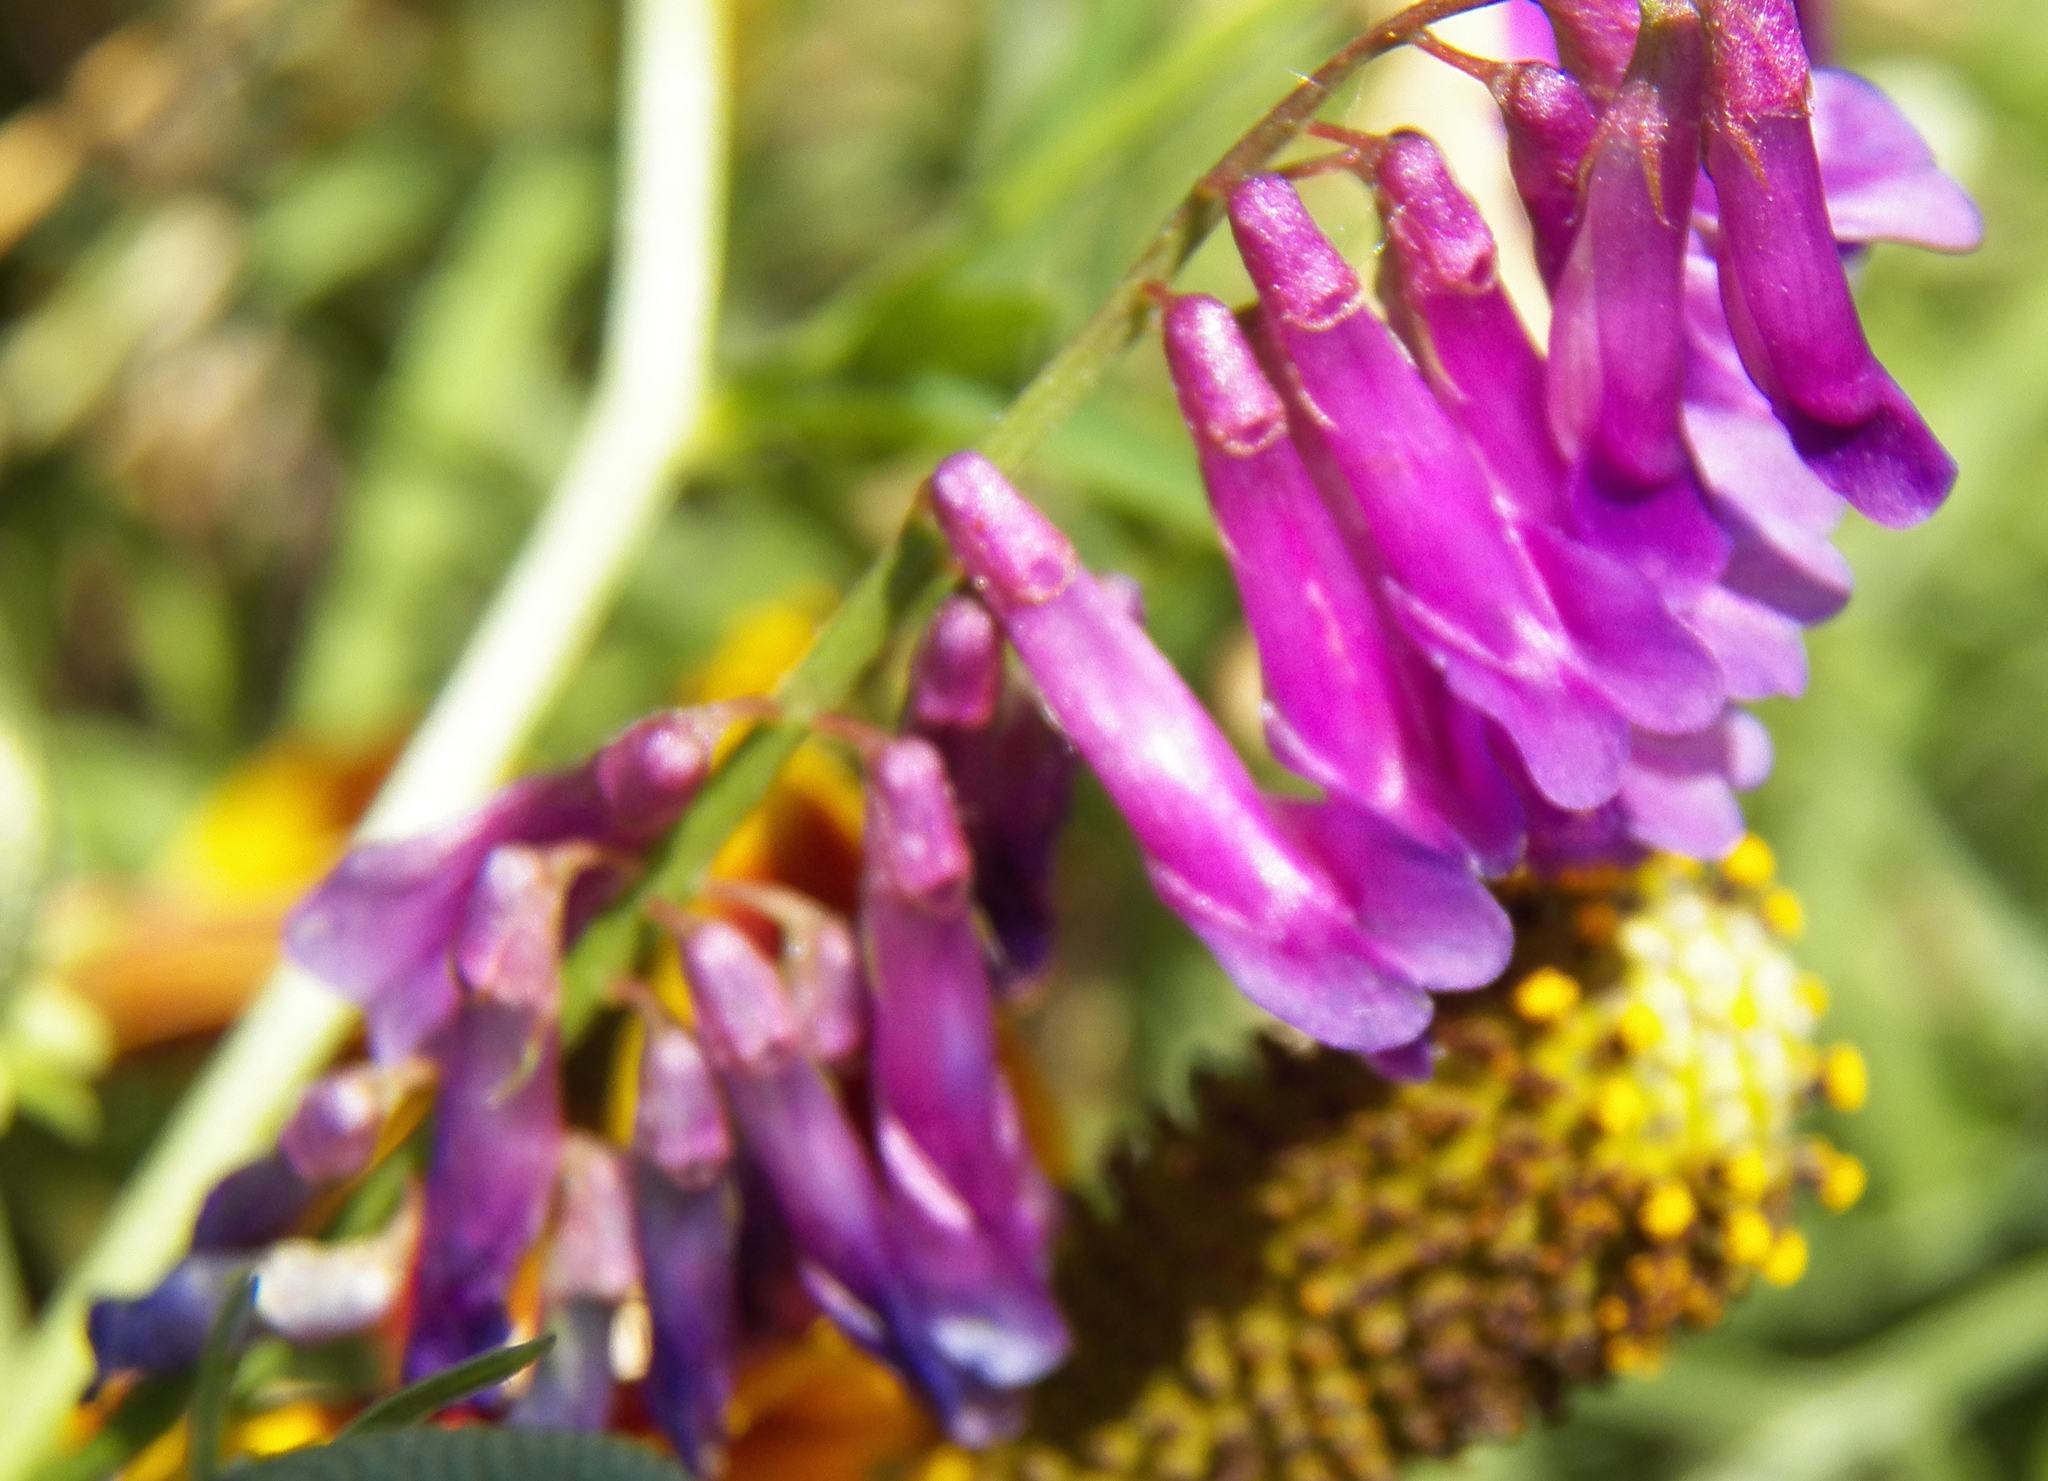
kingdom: Plantae
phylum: Tracheophyta
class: Magnoliopsida
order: Fabales
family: Fabaceae
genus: Vicia
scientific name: Vicia villosa
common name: Fodder vetch
